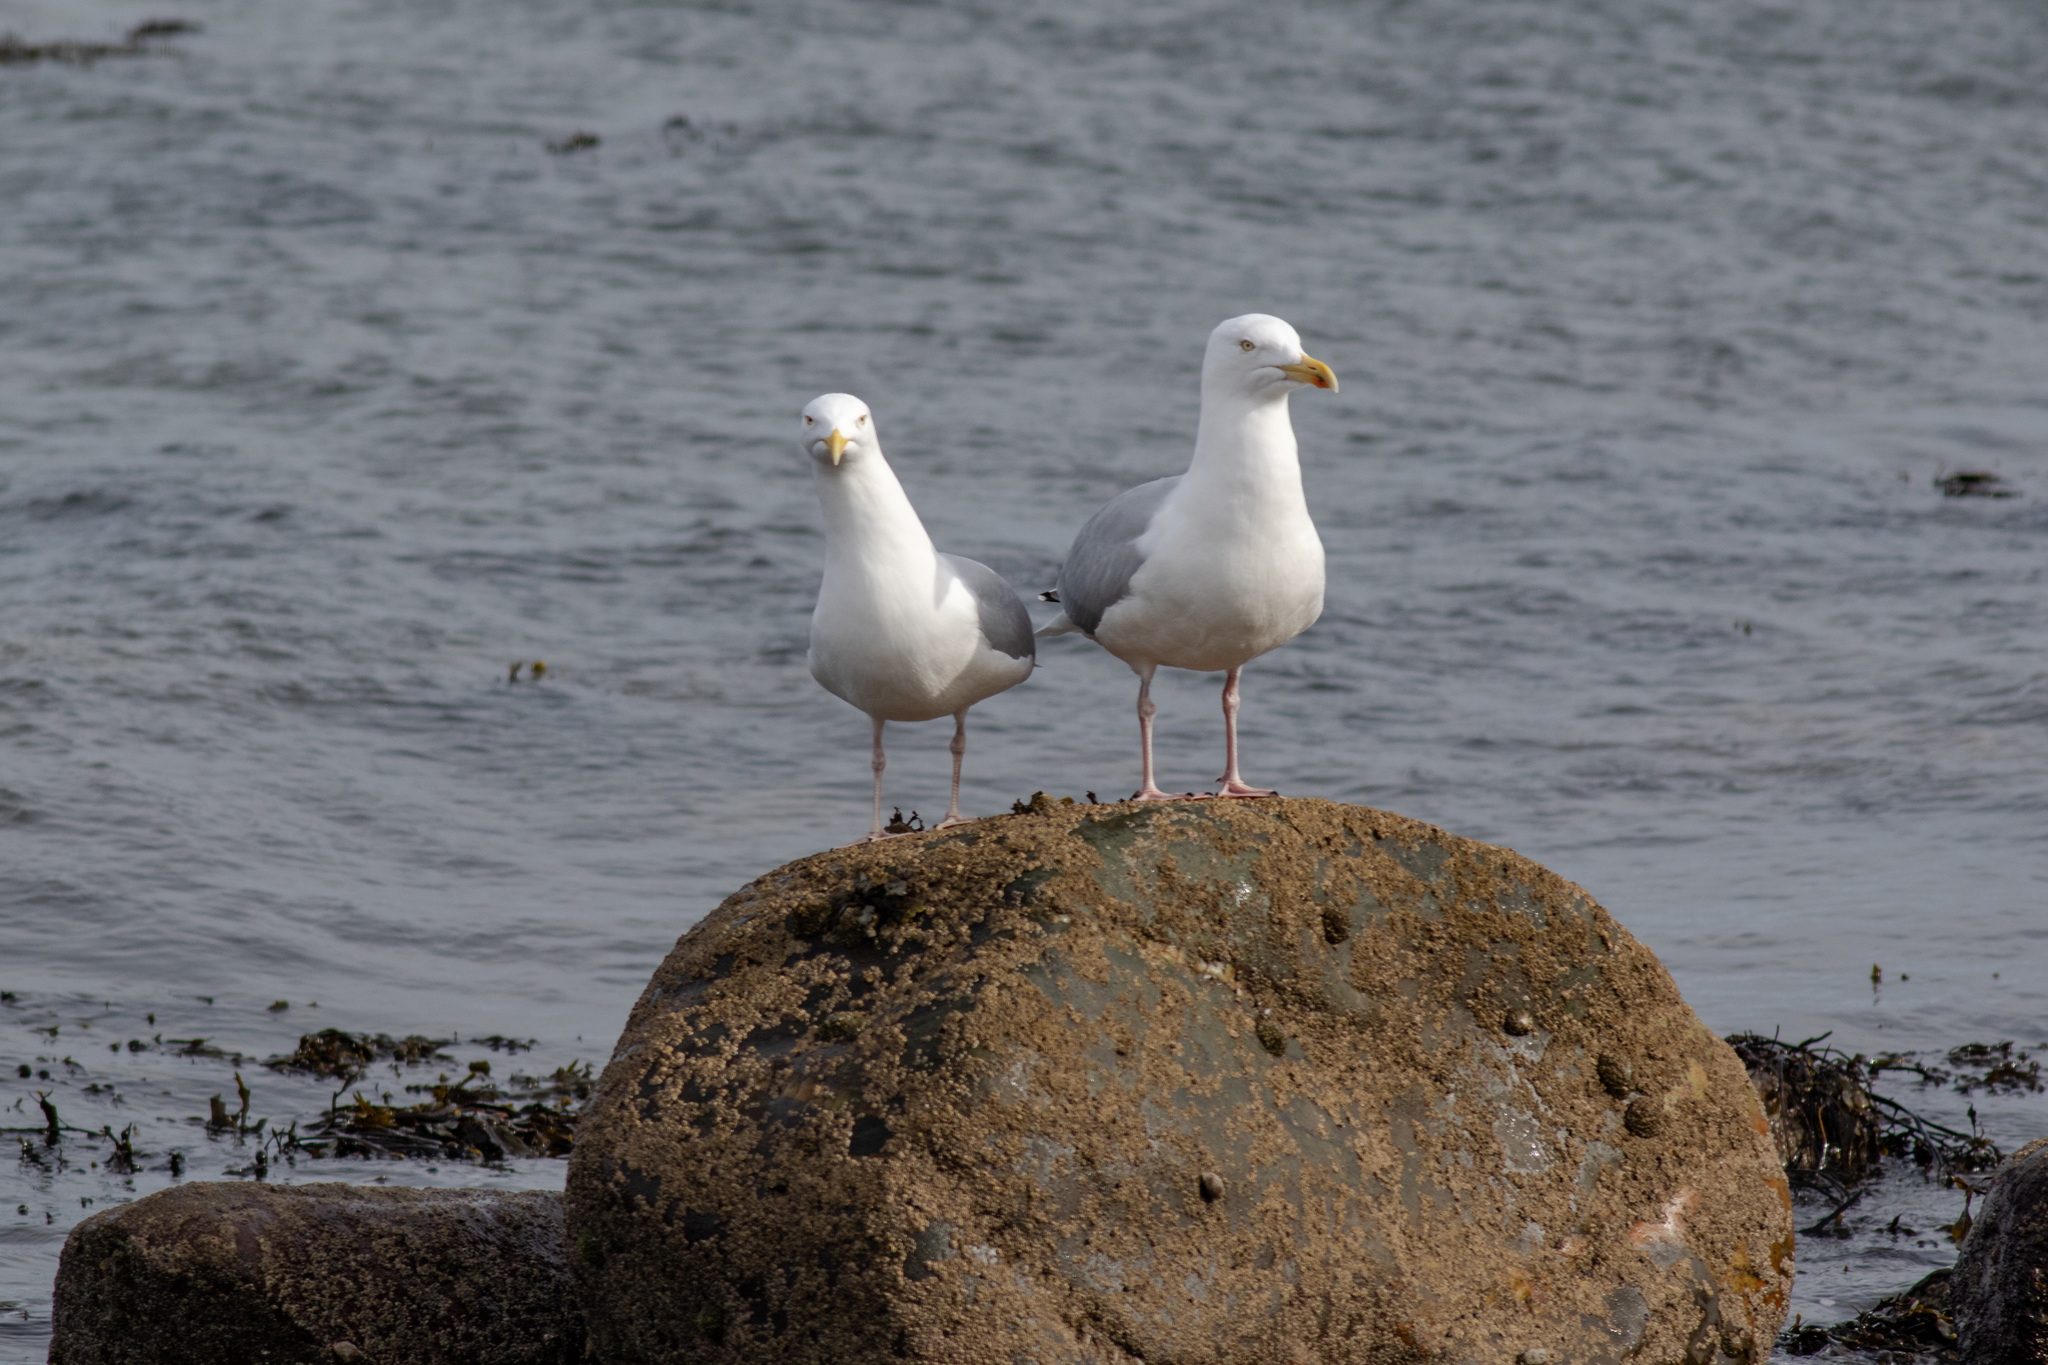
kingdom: Animalia
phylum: Chordata
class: Aves
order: Charadriiformes
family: Laridae
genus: Larus
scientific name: Larus argentatus
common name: Herring gull
